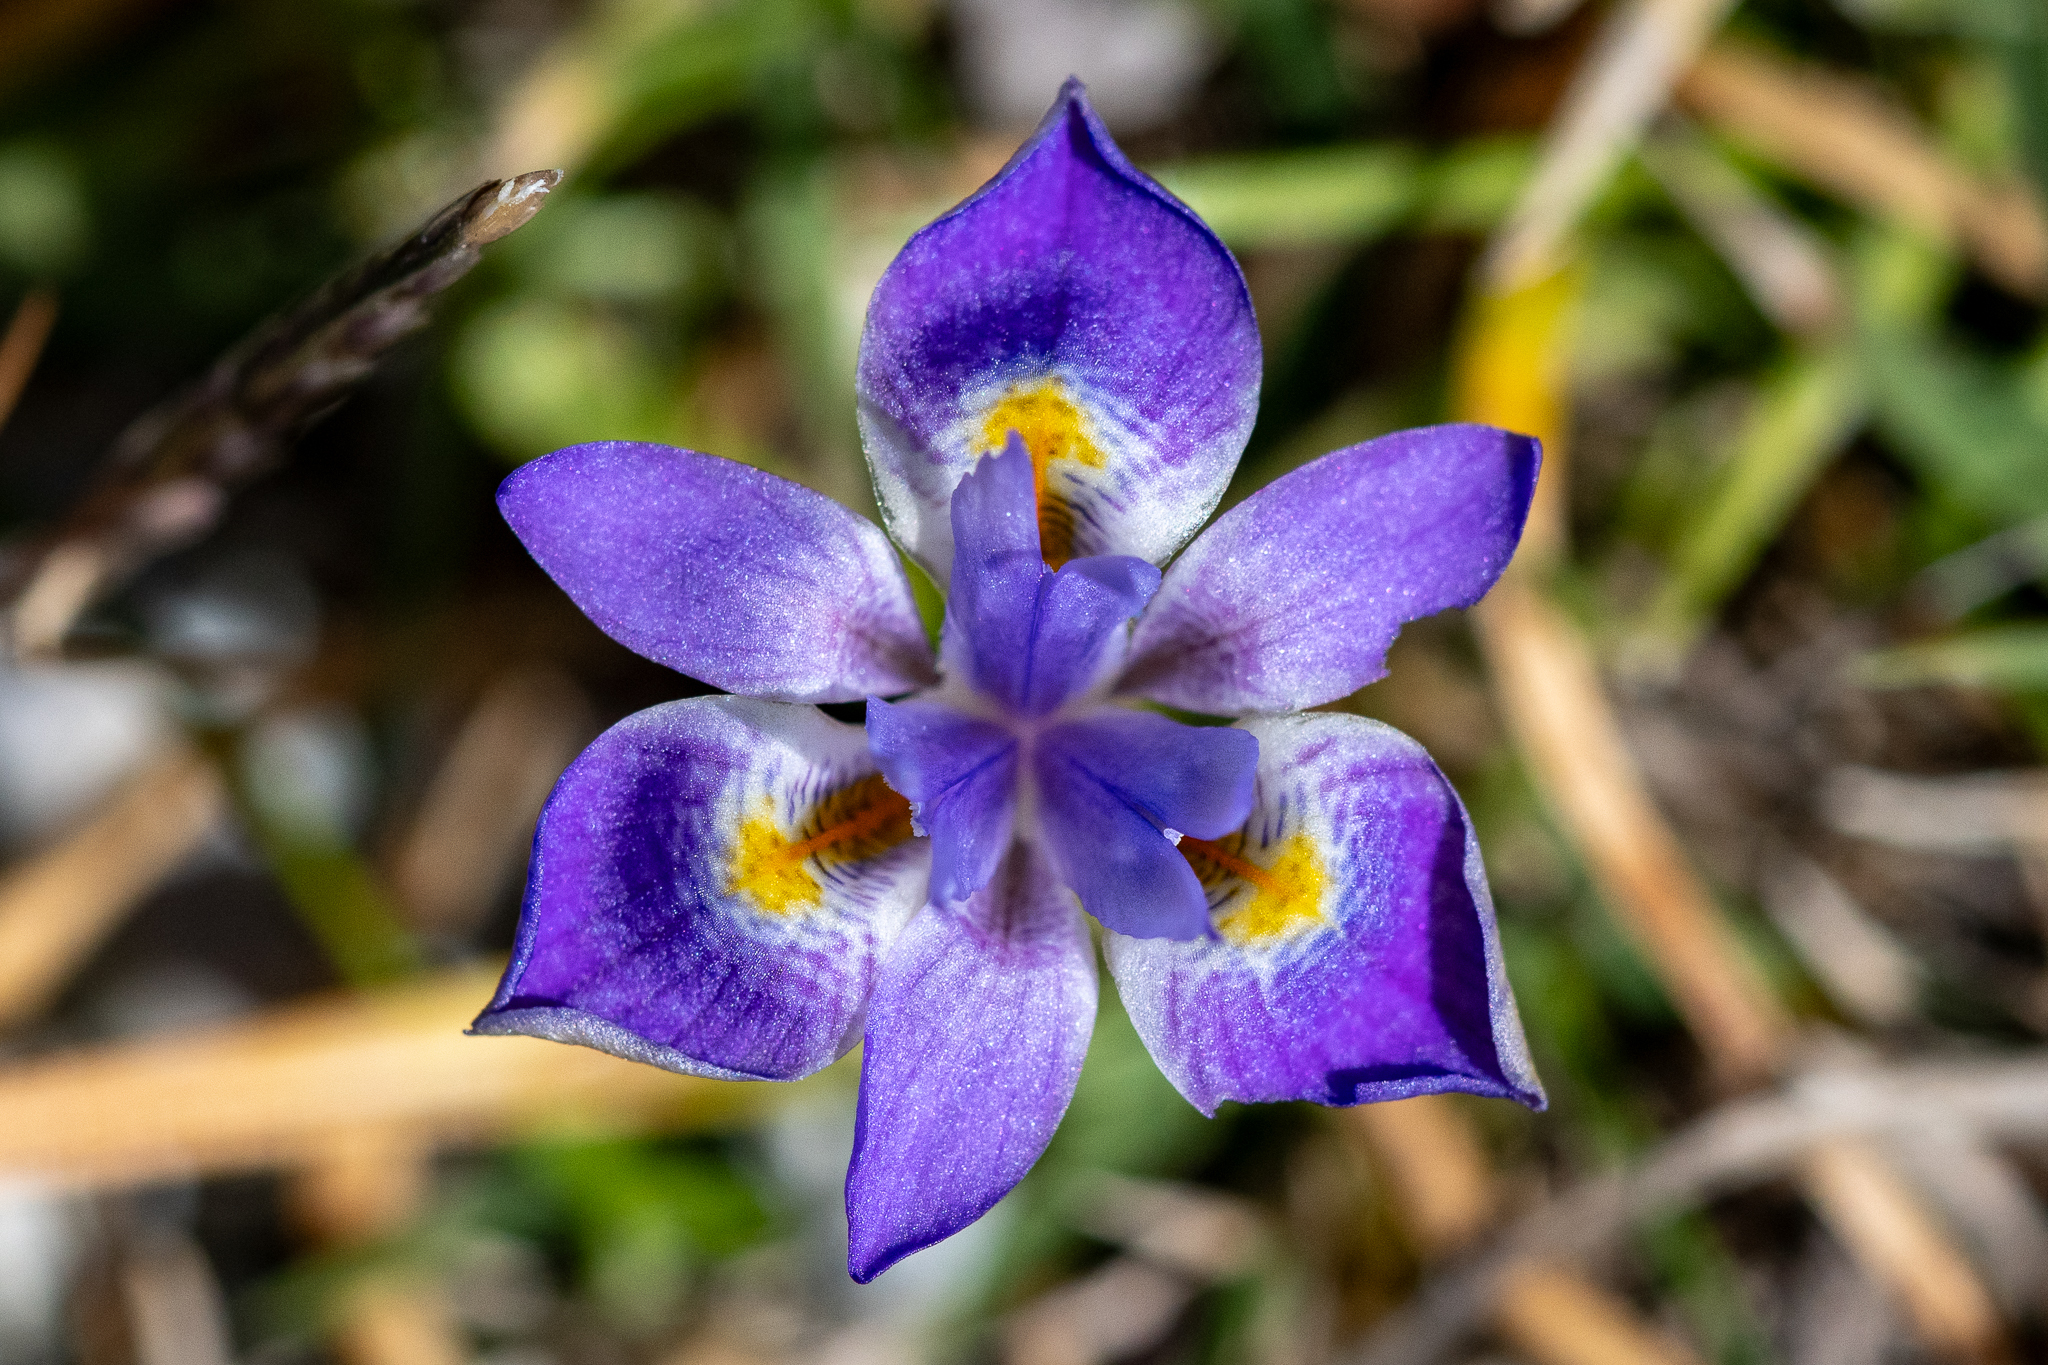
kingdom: Plantae
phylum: Tracheophyta
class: Liliopsida
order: Asparagales
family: Iridaceae
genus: Moraea
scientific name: Moraea setifolia
